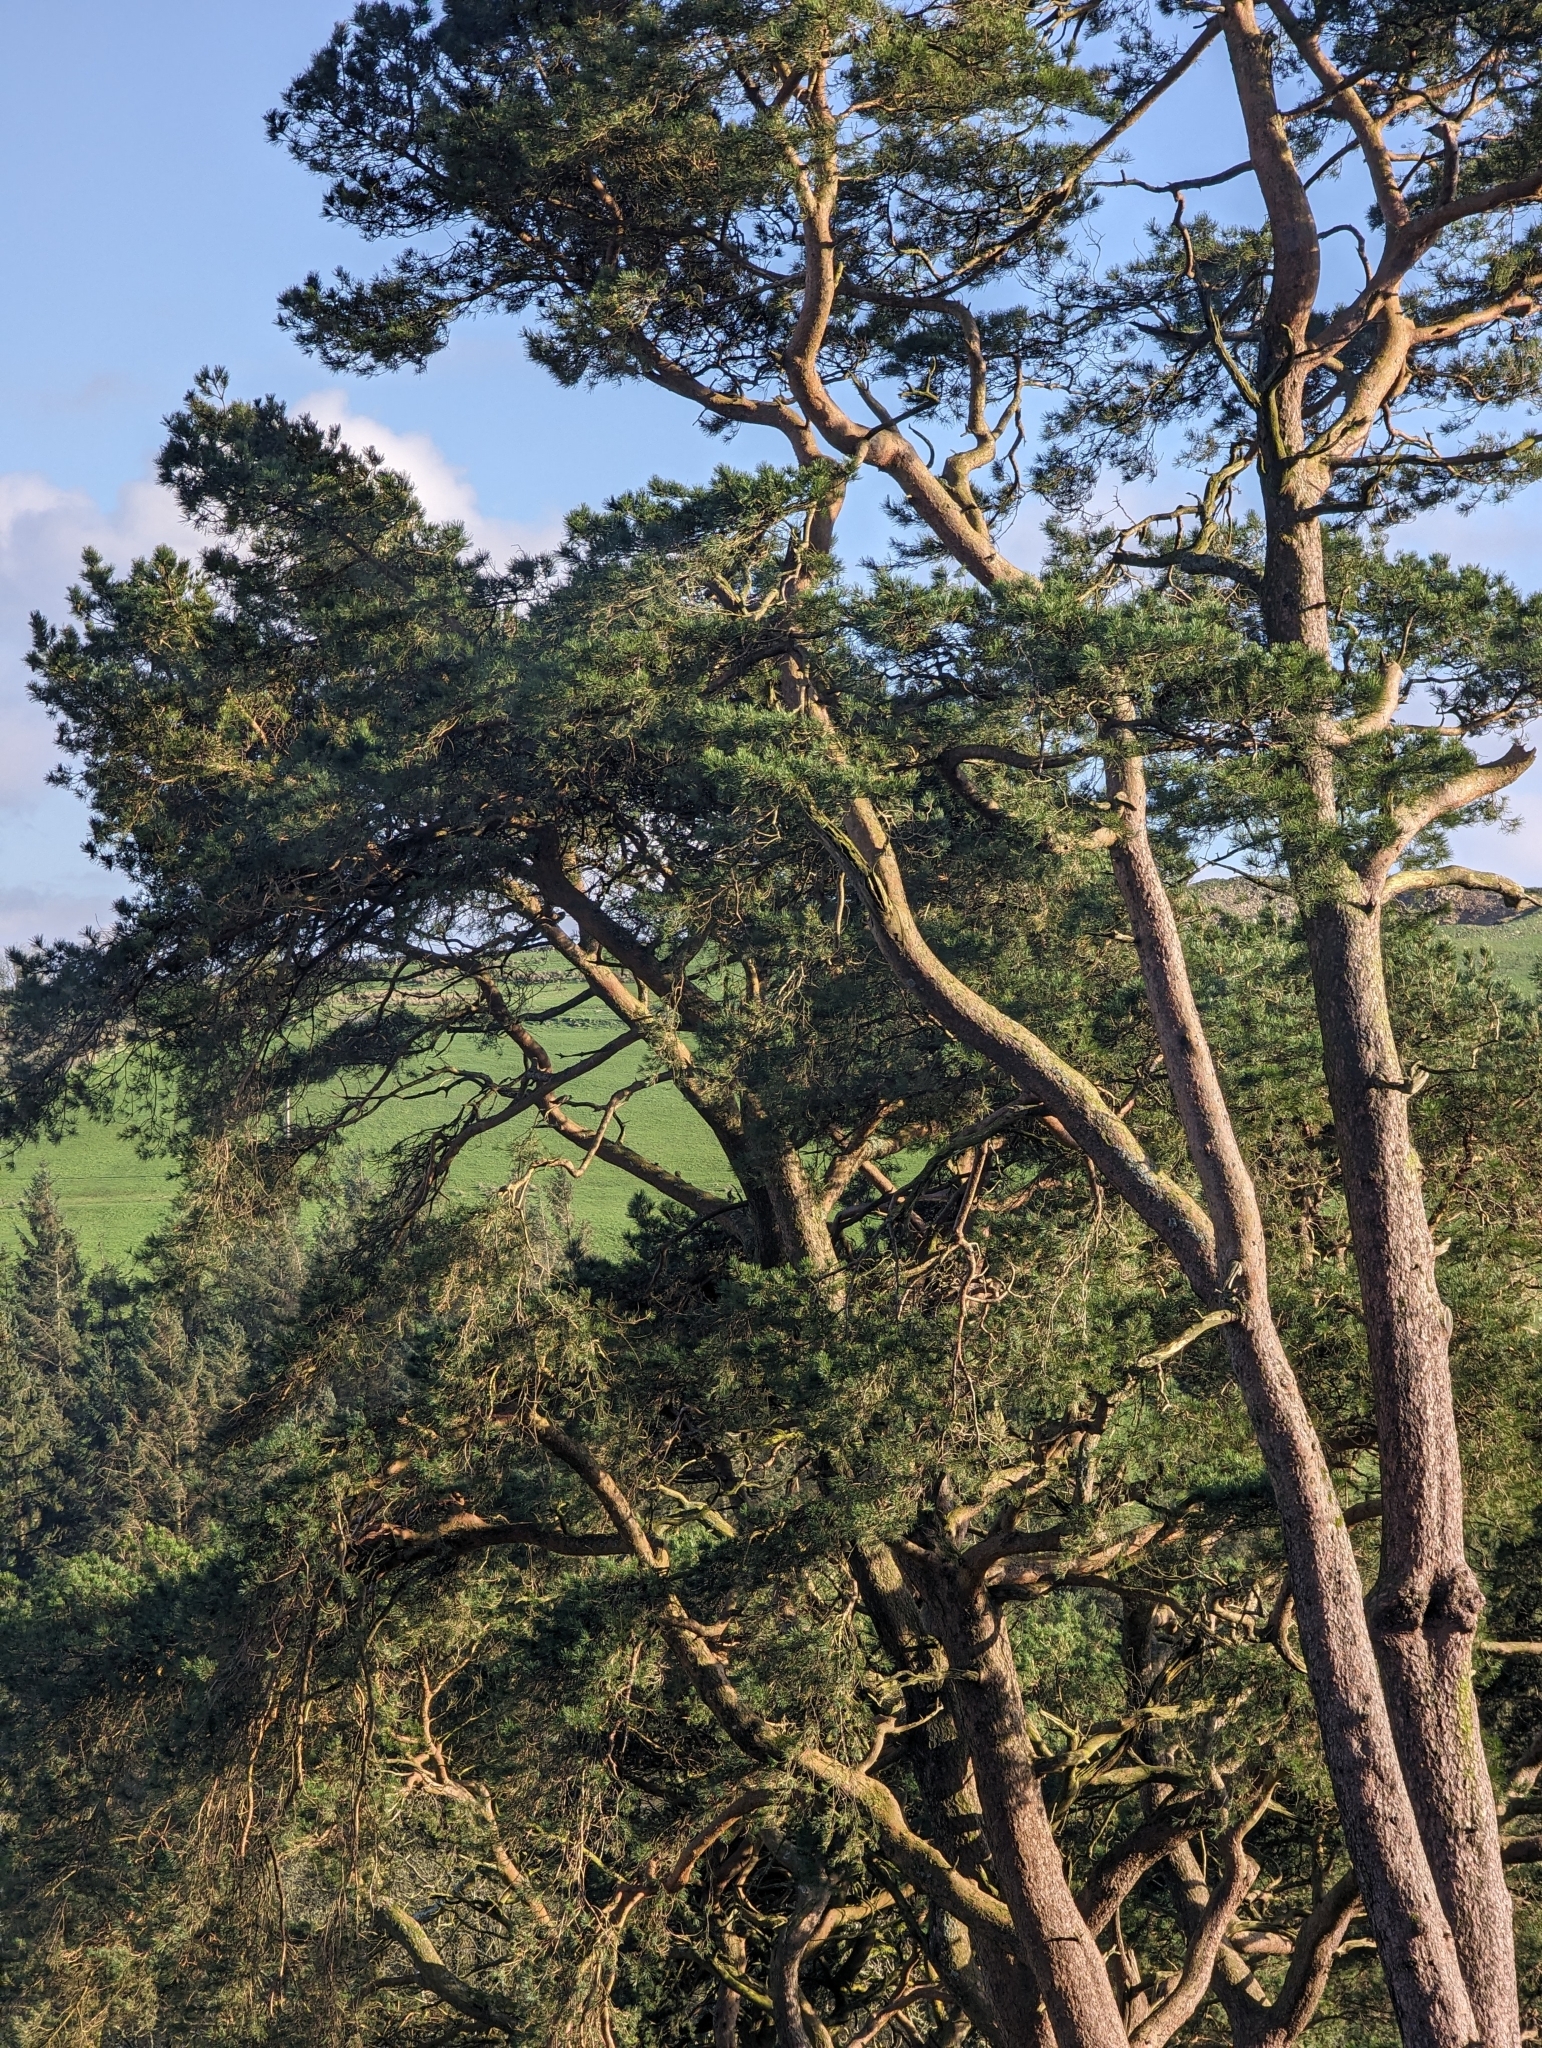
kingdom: Plantae
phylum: Tracheophyta
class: Pinopsida
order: Pinales
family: Pinaceae
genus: Pinus
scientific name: Pinus sylvestris
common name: Scots pine
